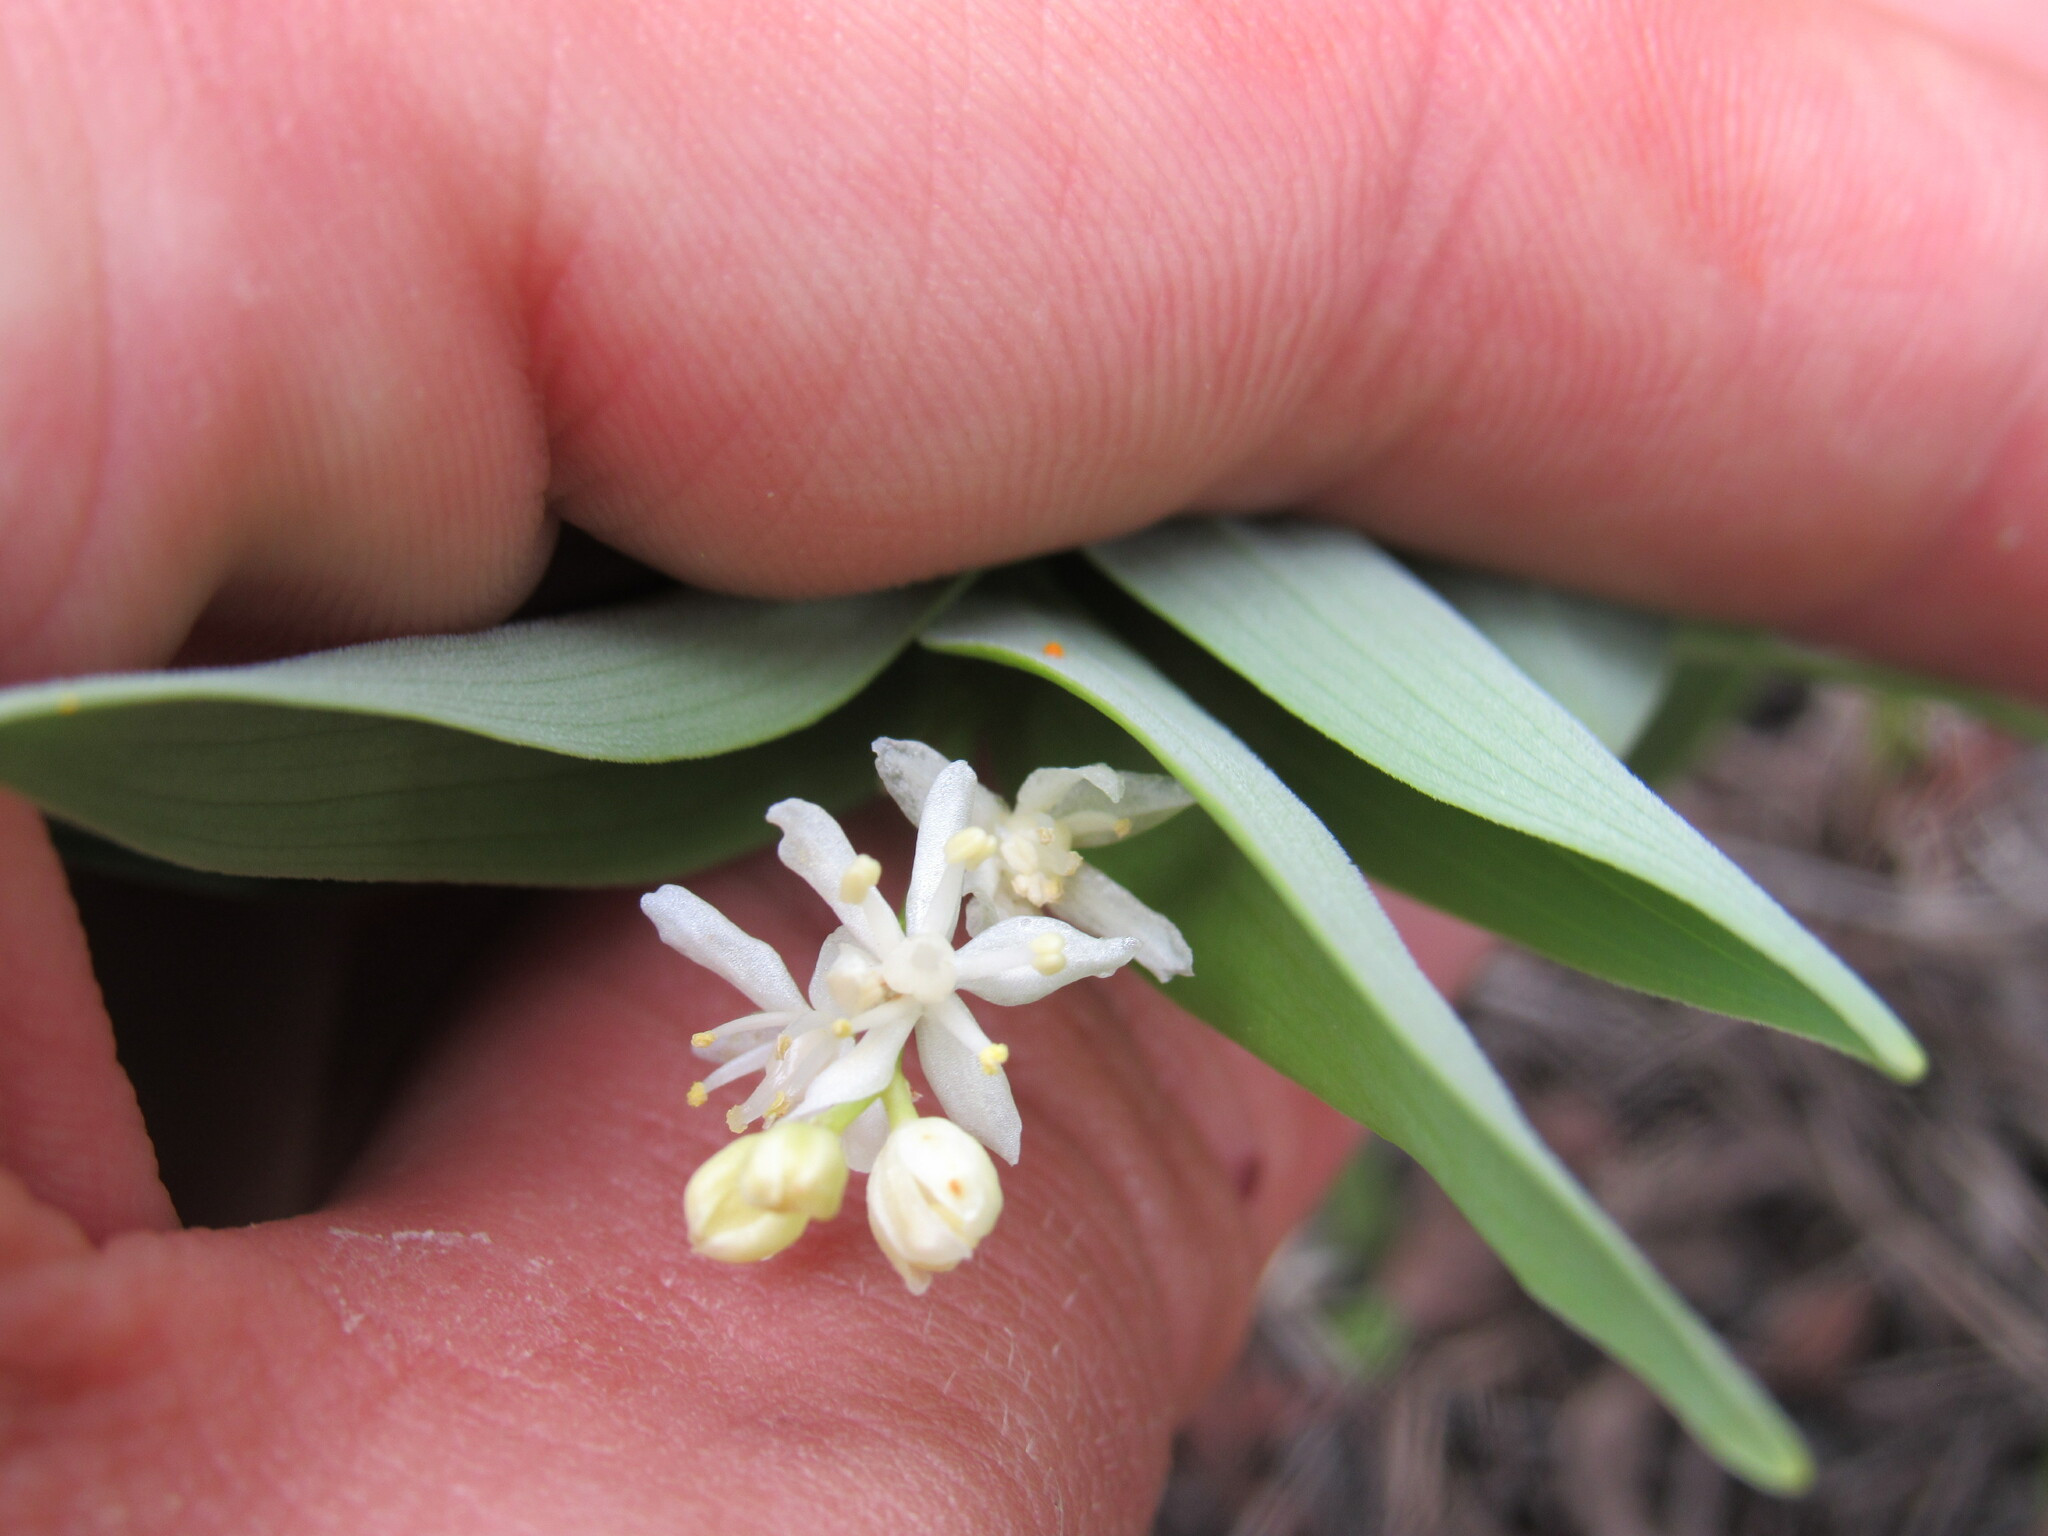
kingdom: Plantae
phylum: Tracheophyta
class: Liliopsida
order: Asparagales
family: Asparagaceae
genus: Maianthemum
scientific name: Maianthemum stellatum
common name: Little false solomon's seal
